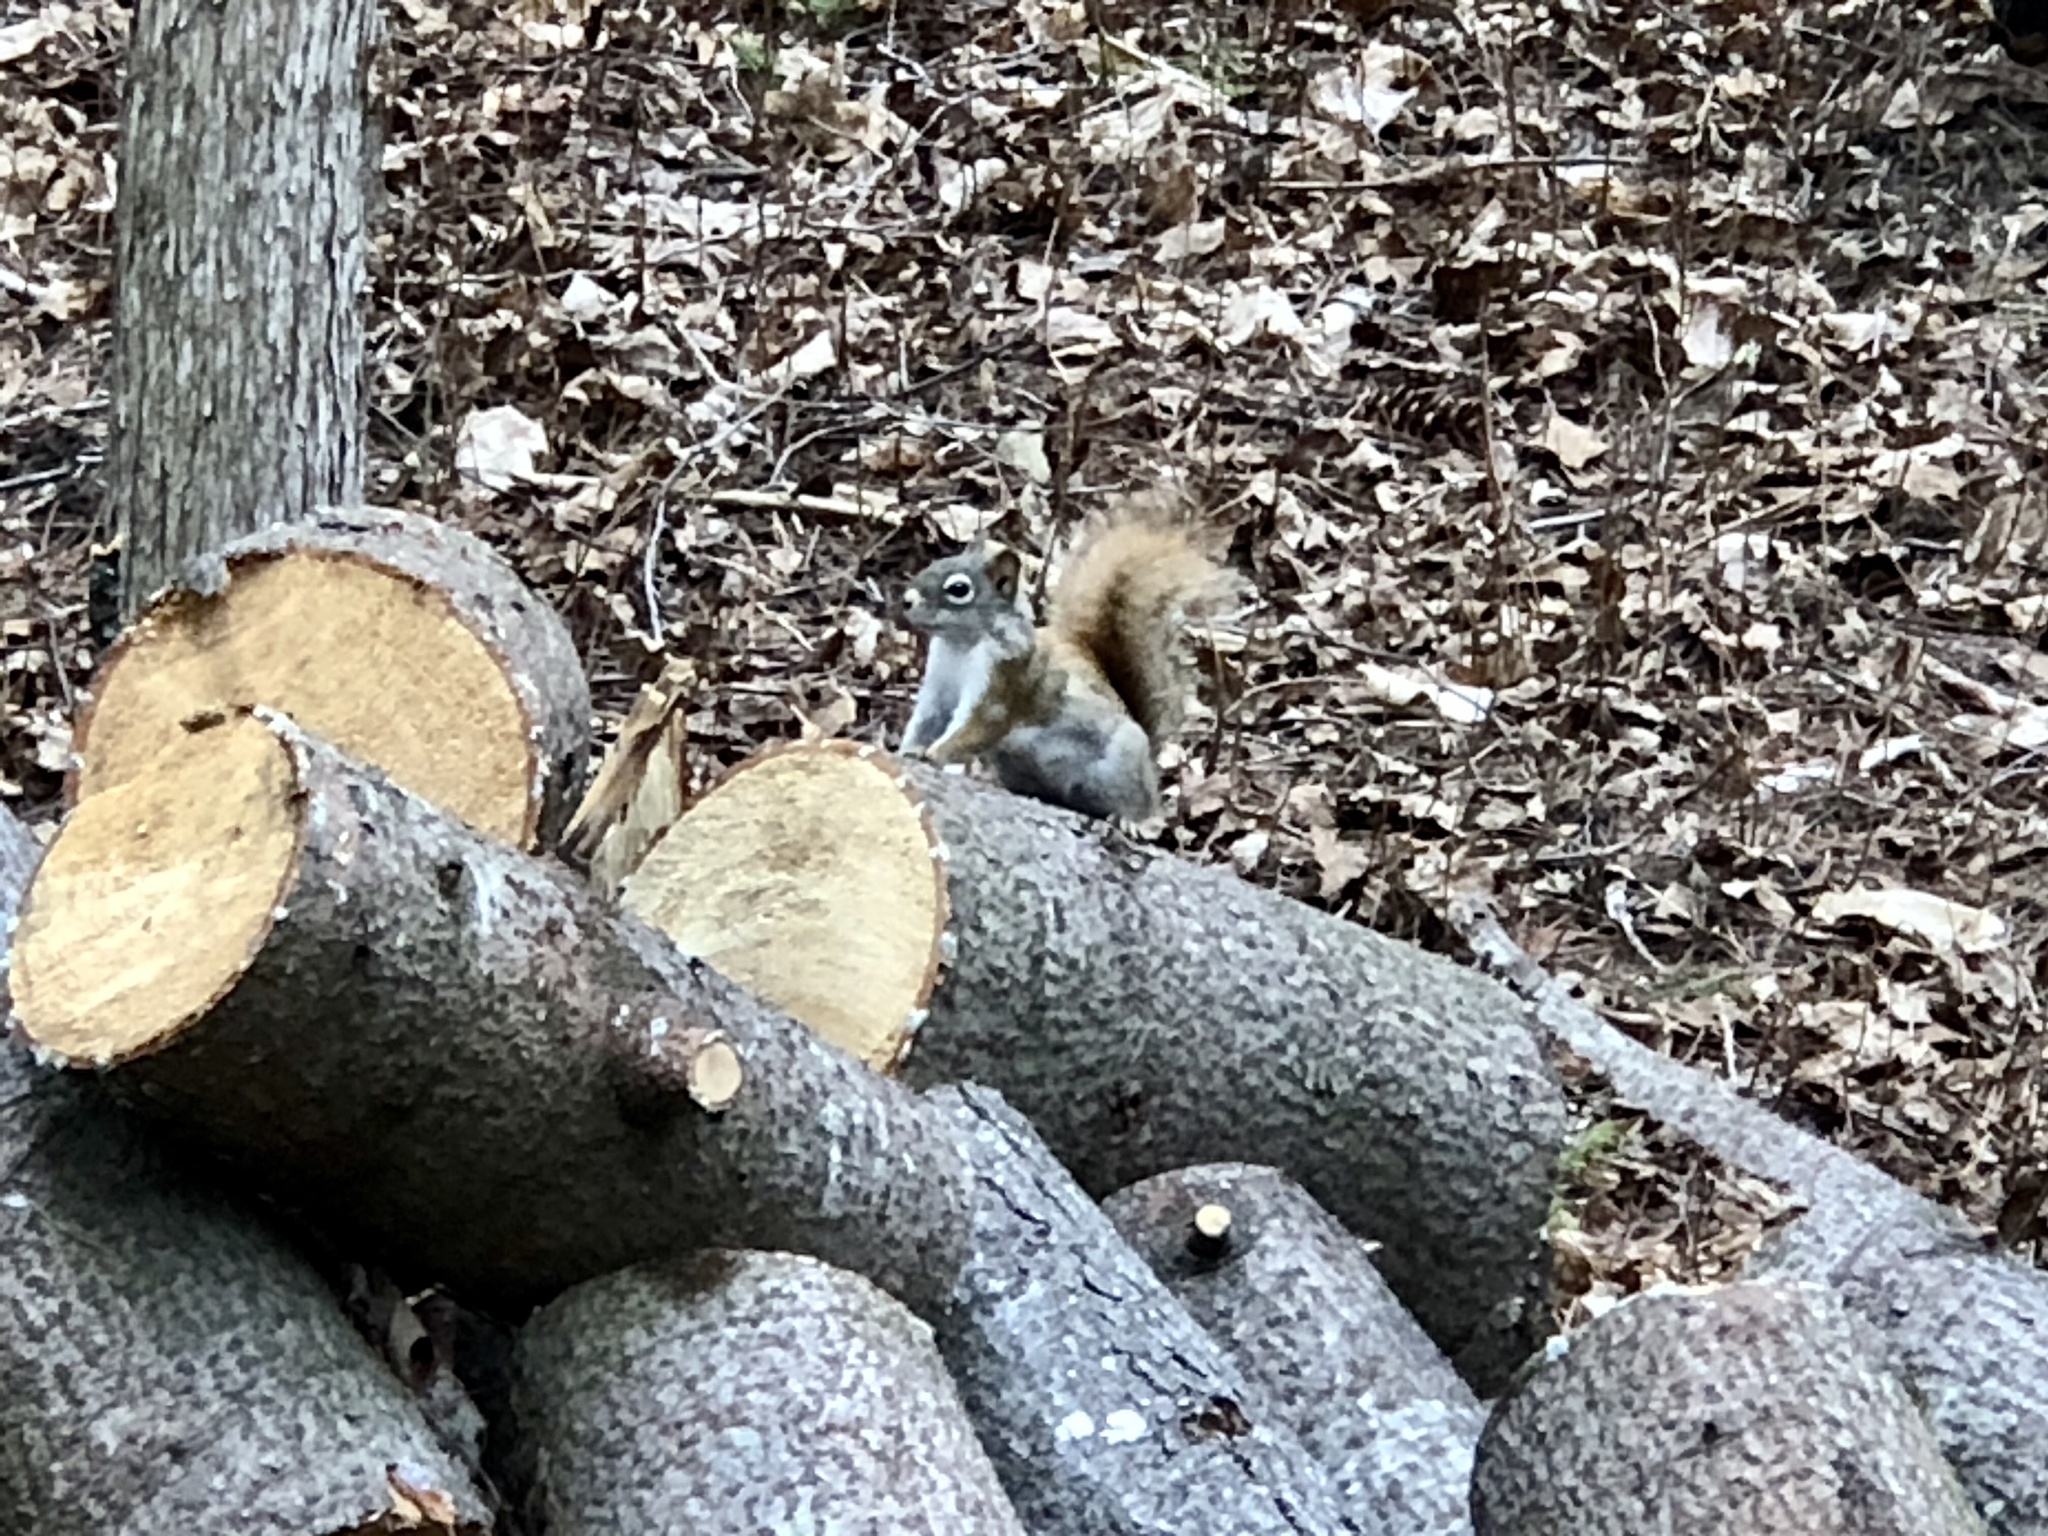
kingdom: Animalia
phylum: Chordata
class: Mammalia
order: Rodentia
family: Sciuridae
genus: Tamiasciurus
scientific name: Tamiasciurus hudsonicus
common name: Red squirrel
